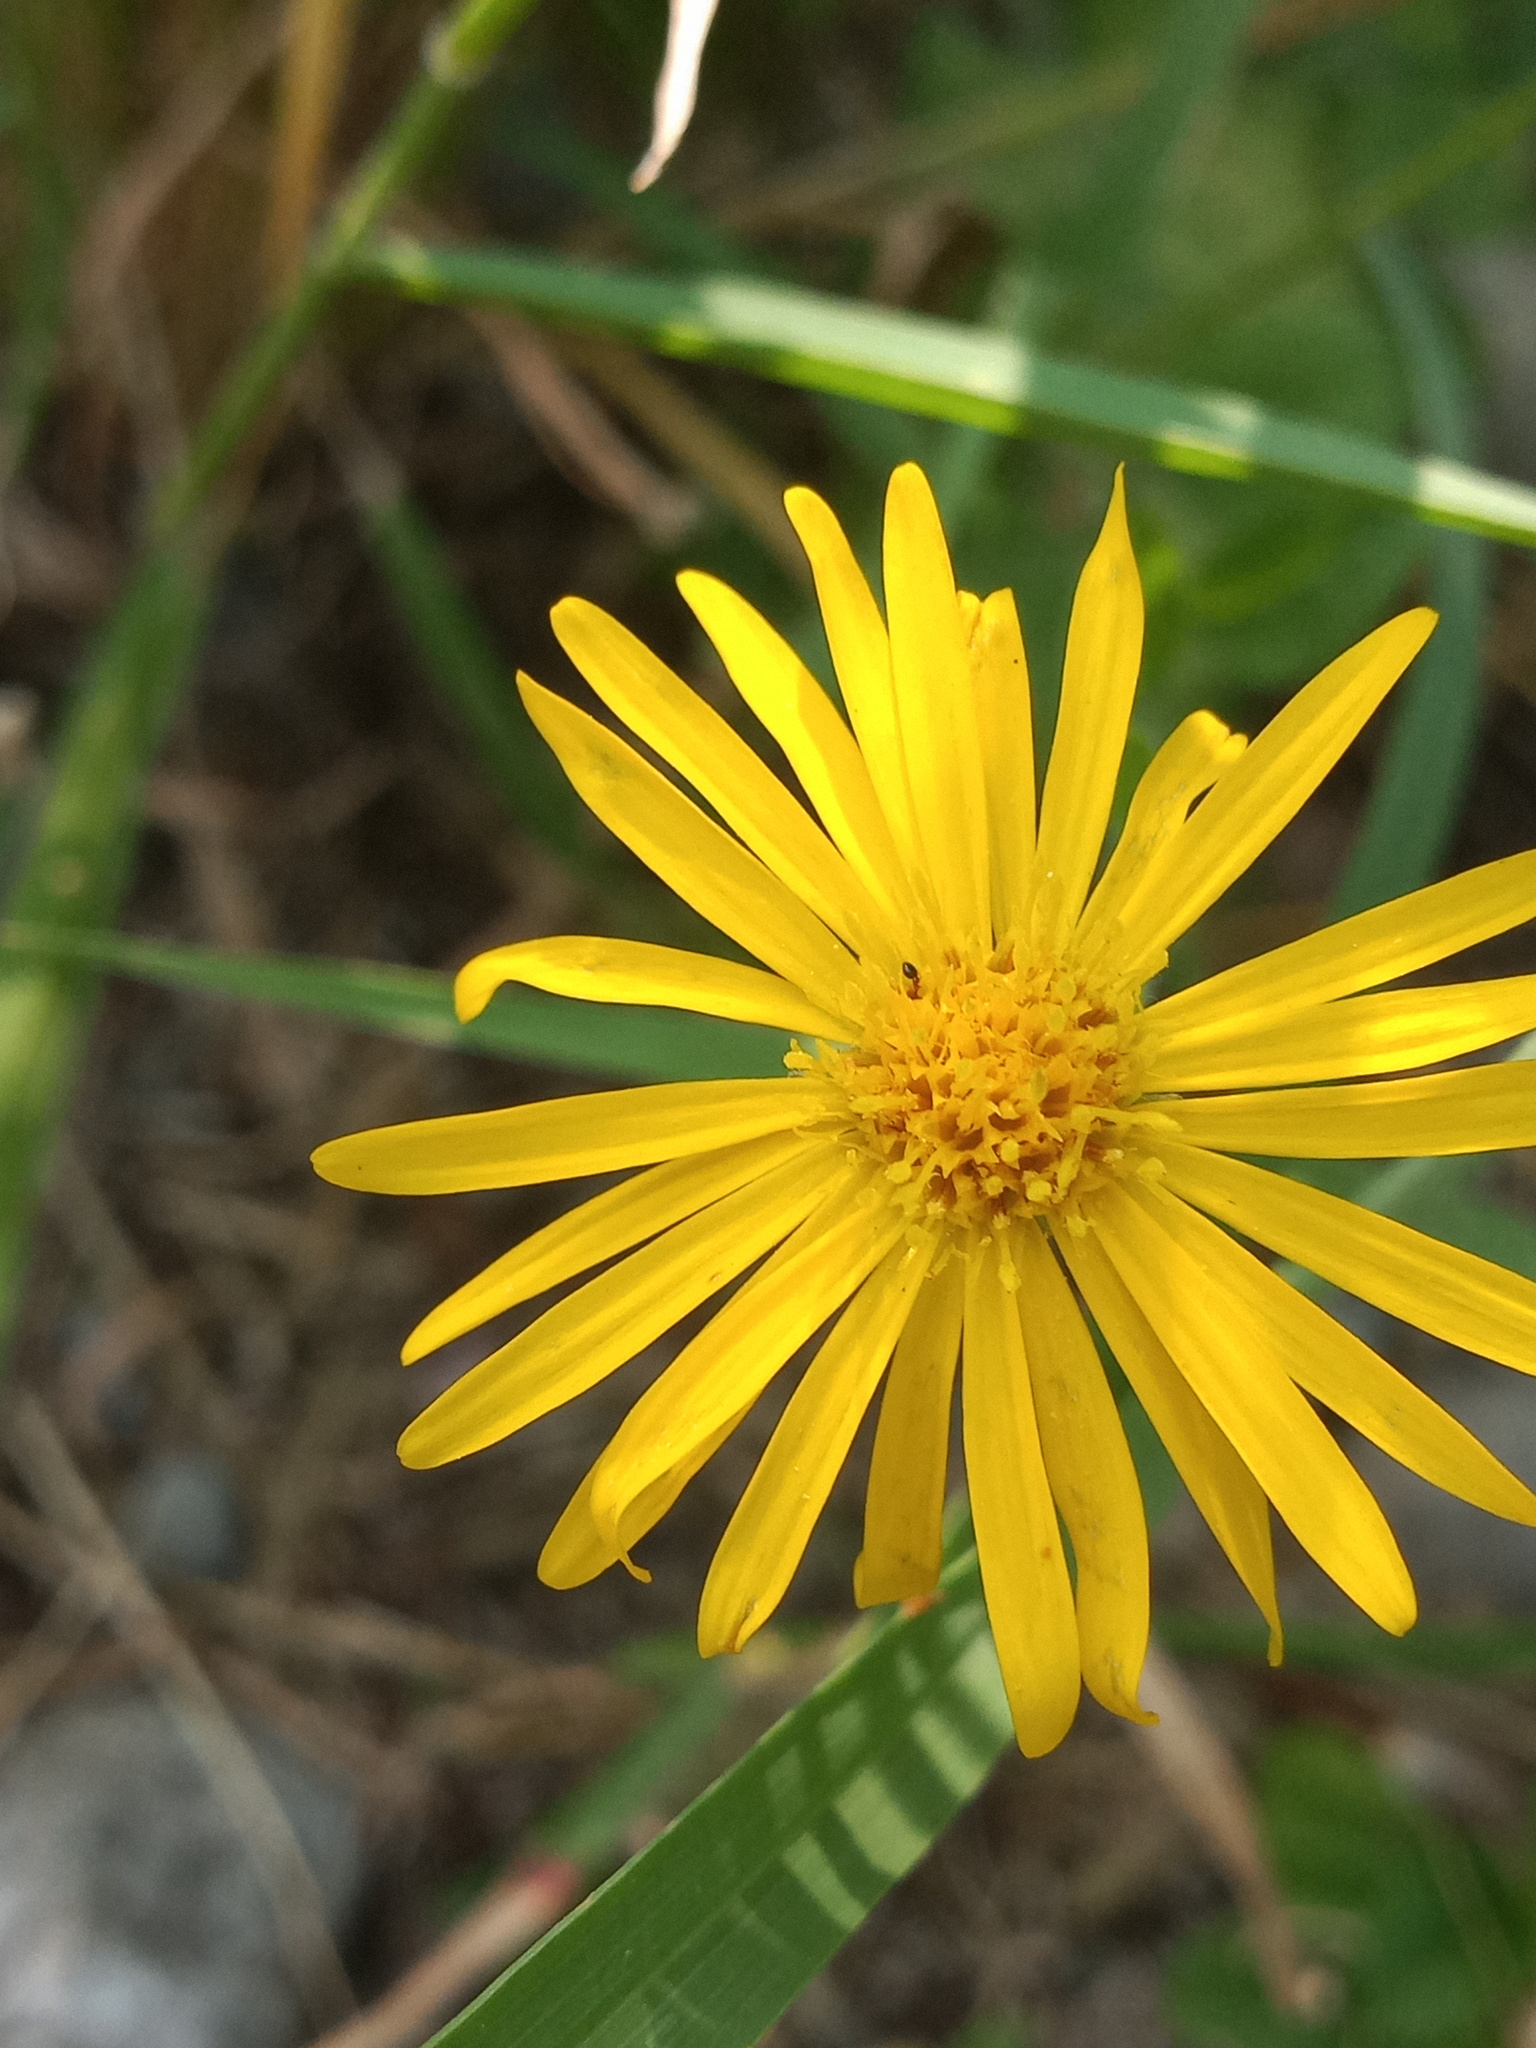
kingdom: Plantae
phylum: Tracheophyta
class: Magnoliopsida
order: Asterales
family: Asteraceae
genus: Heterotheca
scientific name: Heterotheca subaxillaris
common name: Camphorweed
